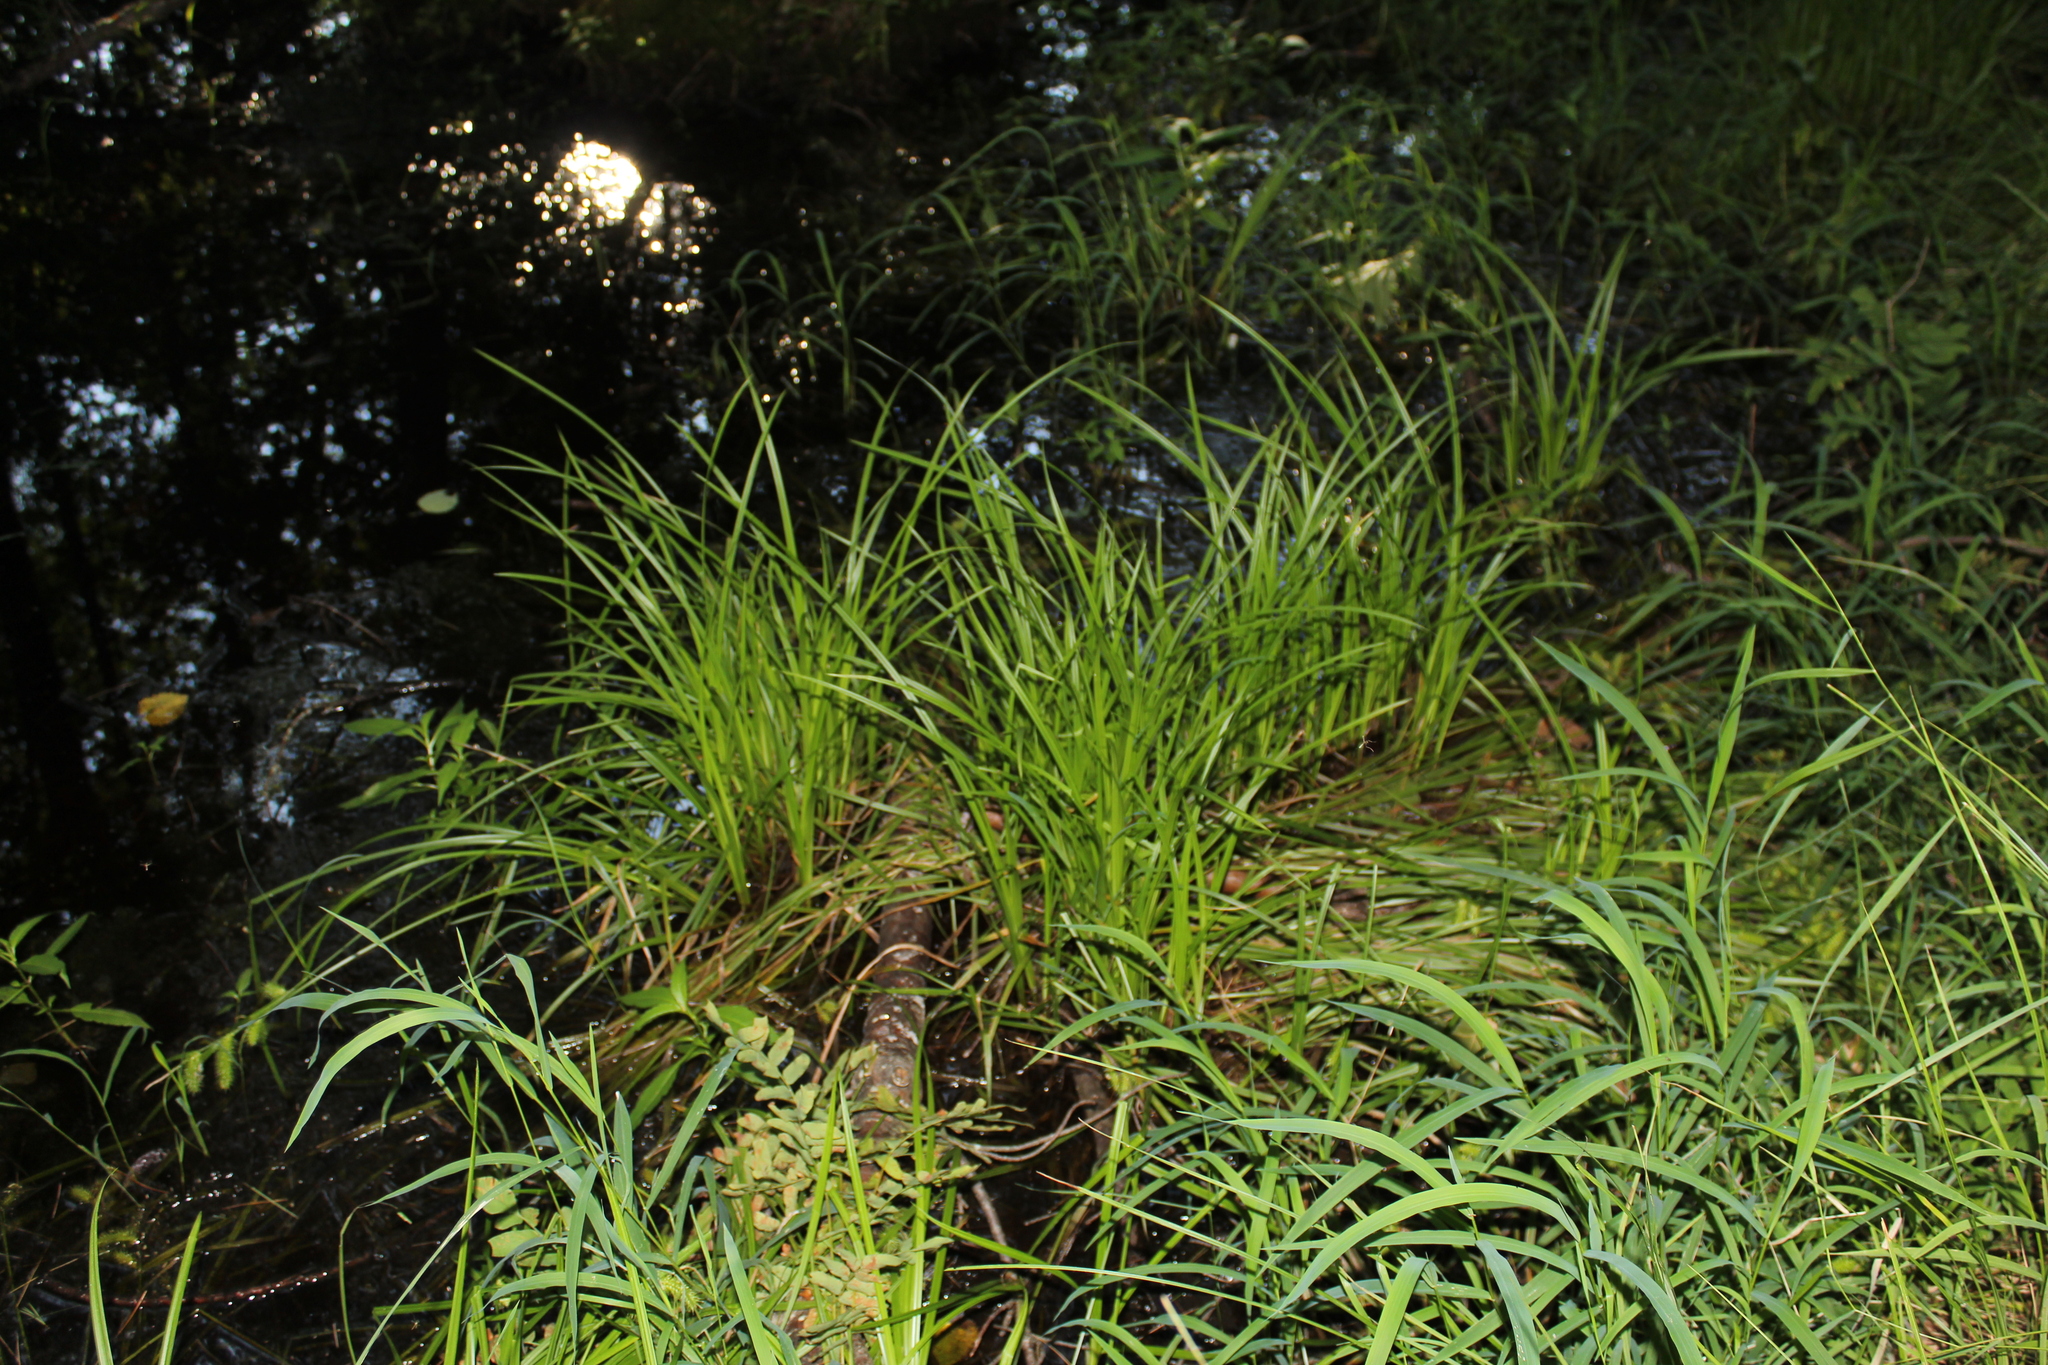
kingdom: Plantae
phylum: Tracheophyta
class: Liliopsida
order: Poales
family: Cyperaceae
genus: Carex
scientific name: Carex
